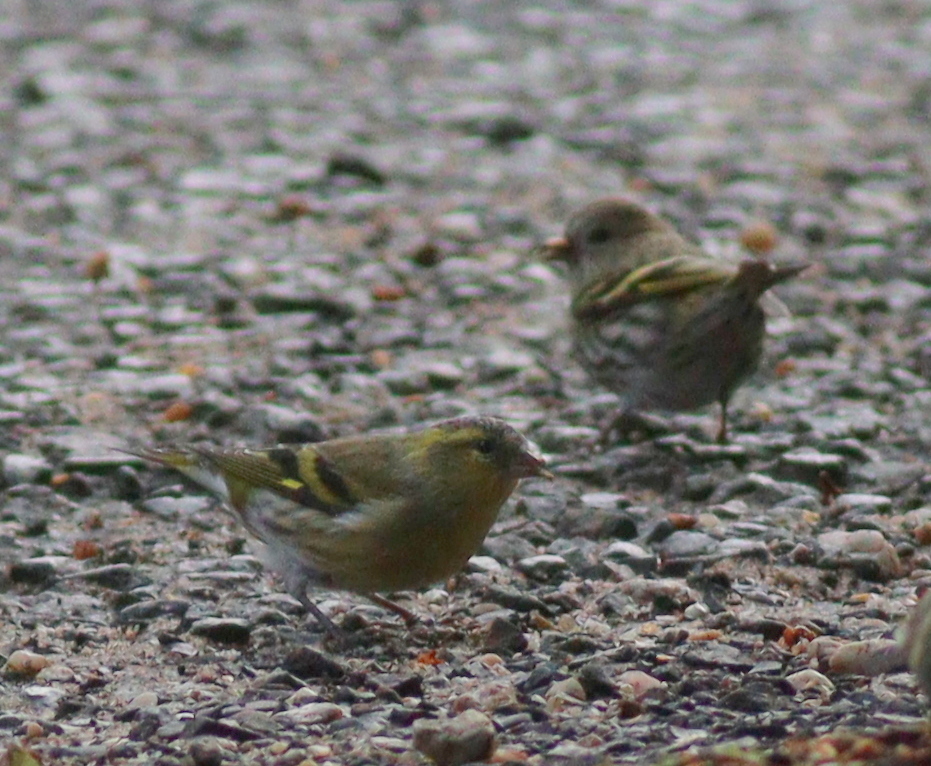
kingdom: Animalia
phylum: Chordata
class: Aves
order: Passeriformes
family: Fringillidae
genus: Spinus
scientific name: Spinus spinus
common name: Eurasian siskin
